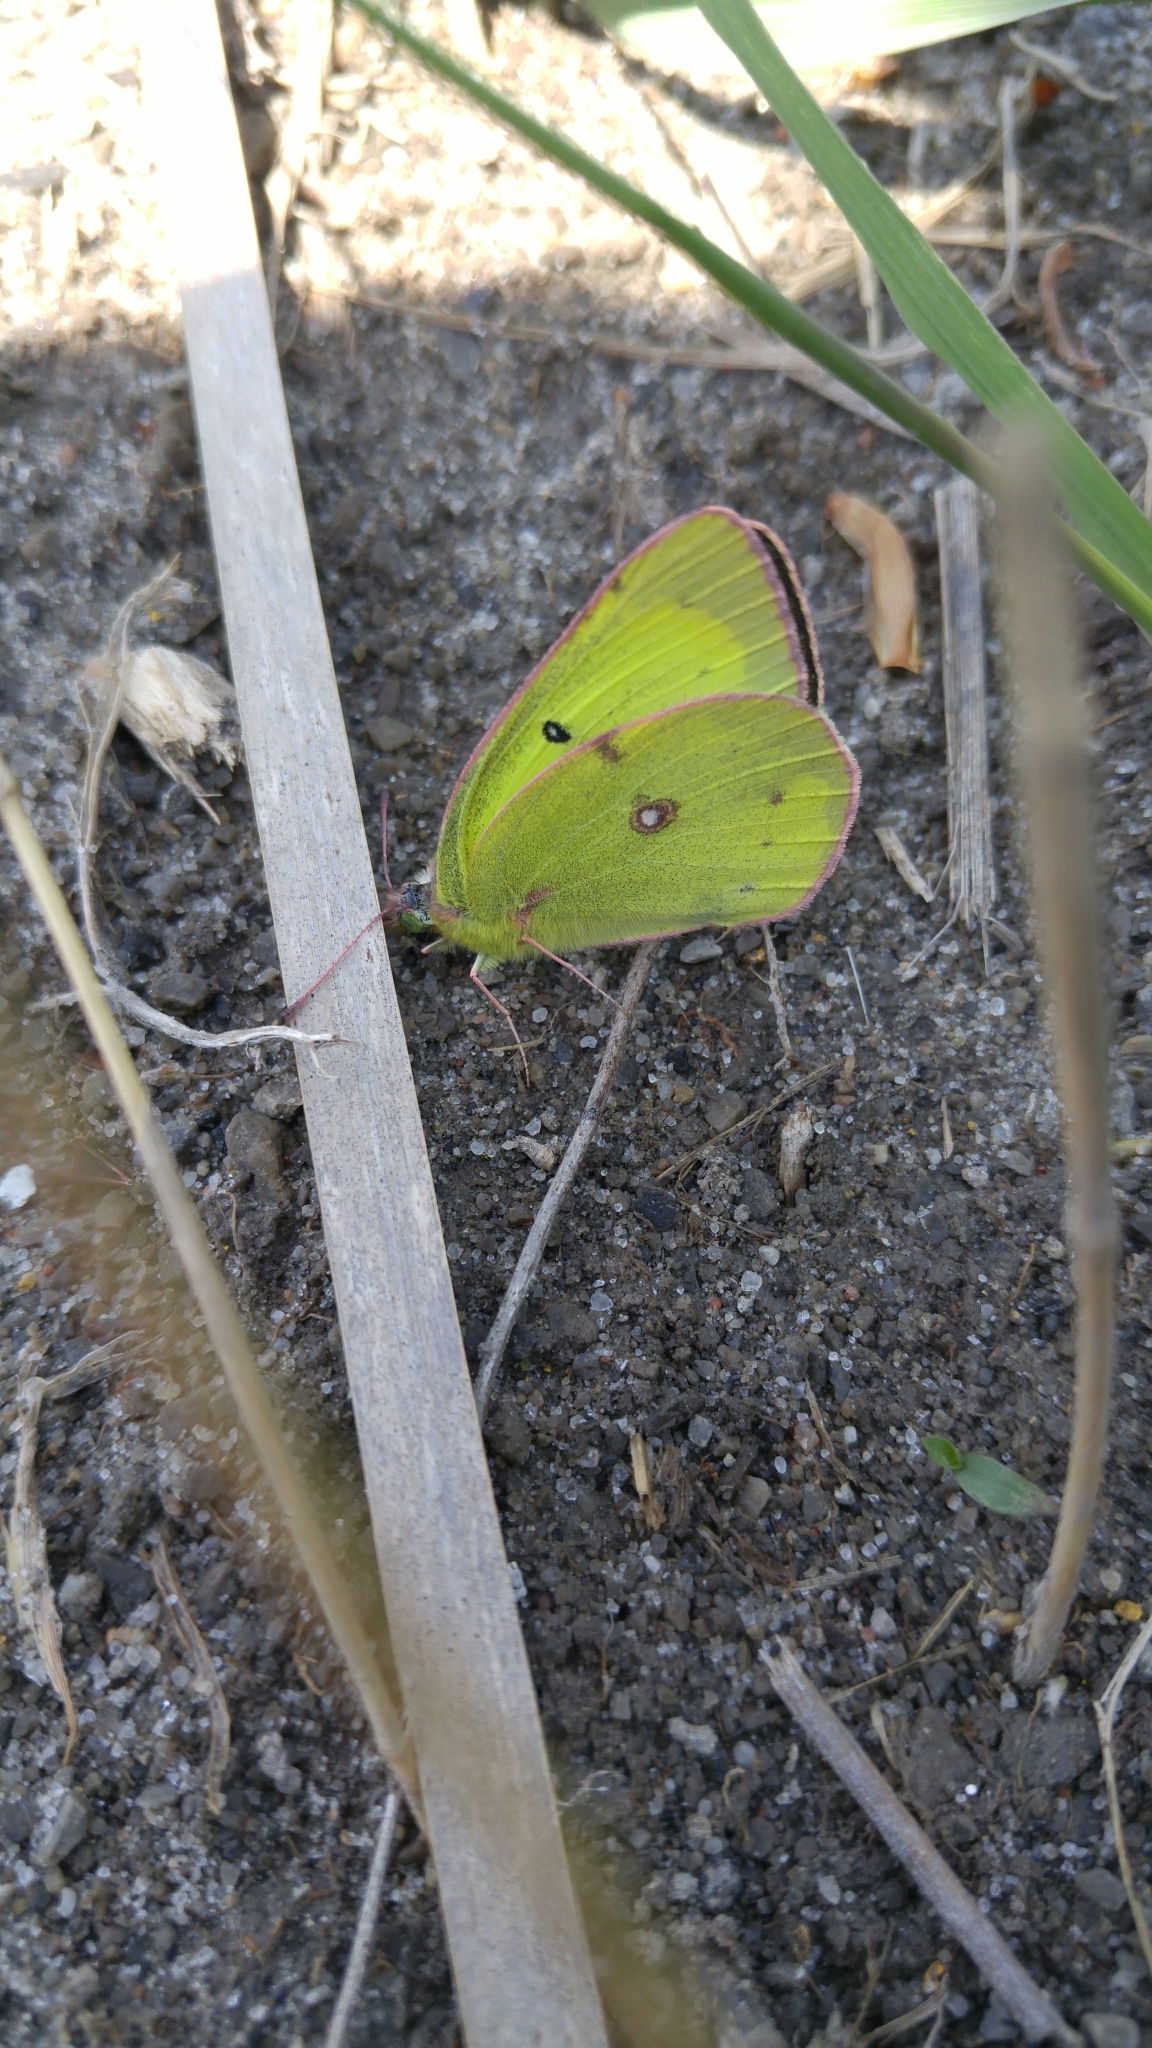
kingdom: Animalia
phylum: Arthropoda
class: Insecta
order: Lepidoptera
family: Pieridae
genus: Colias
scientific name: Colias philodice
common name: Clouded sulphur
